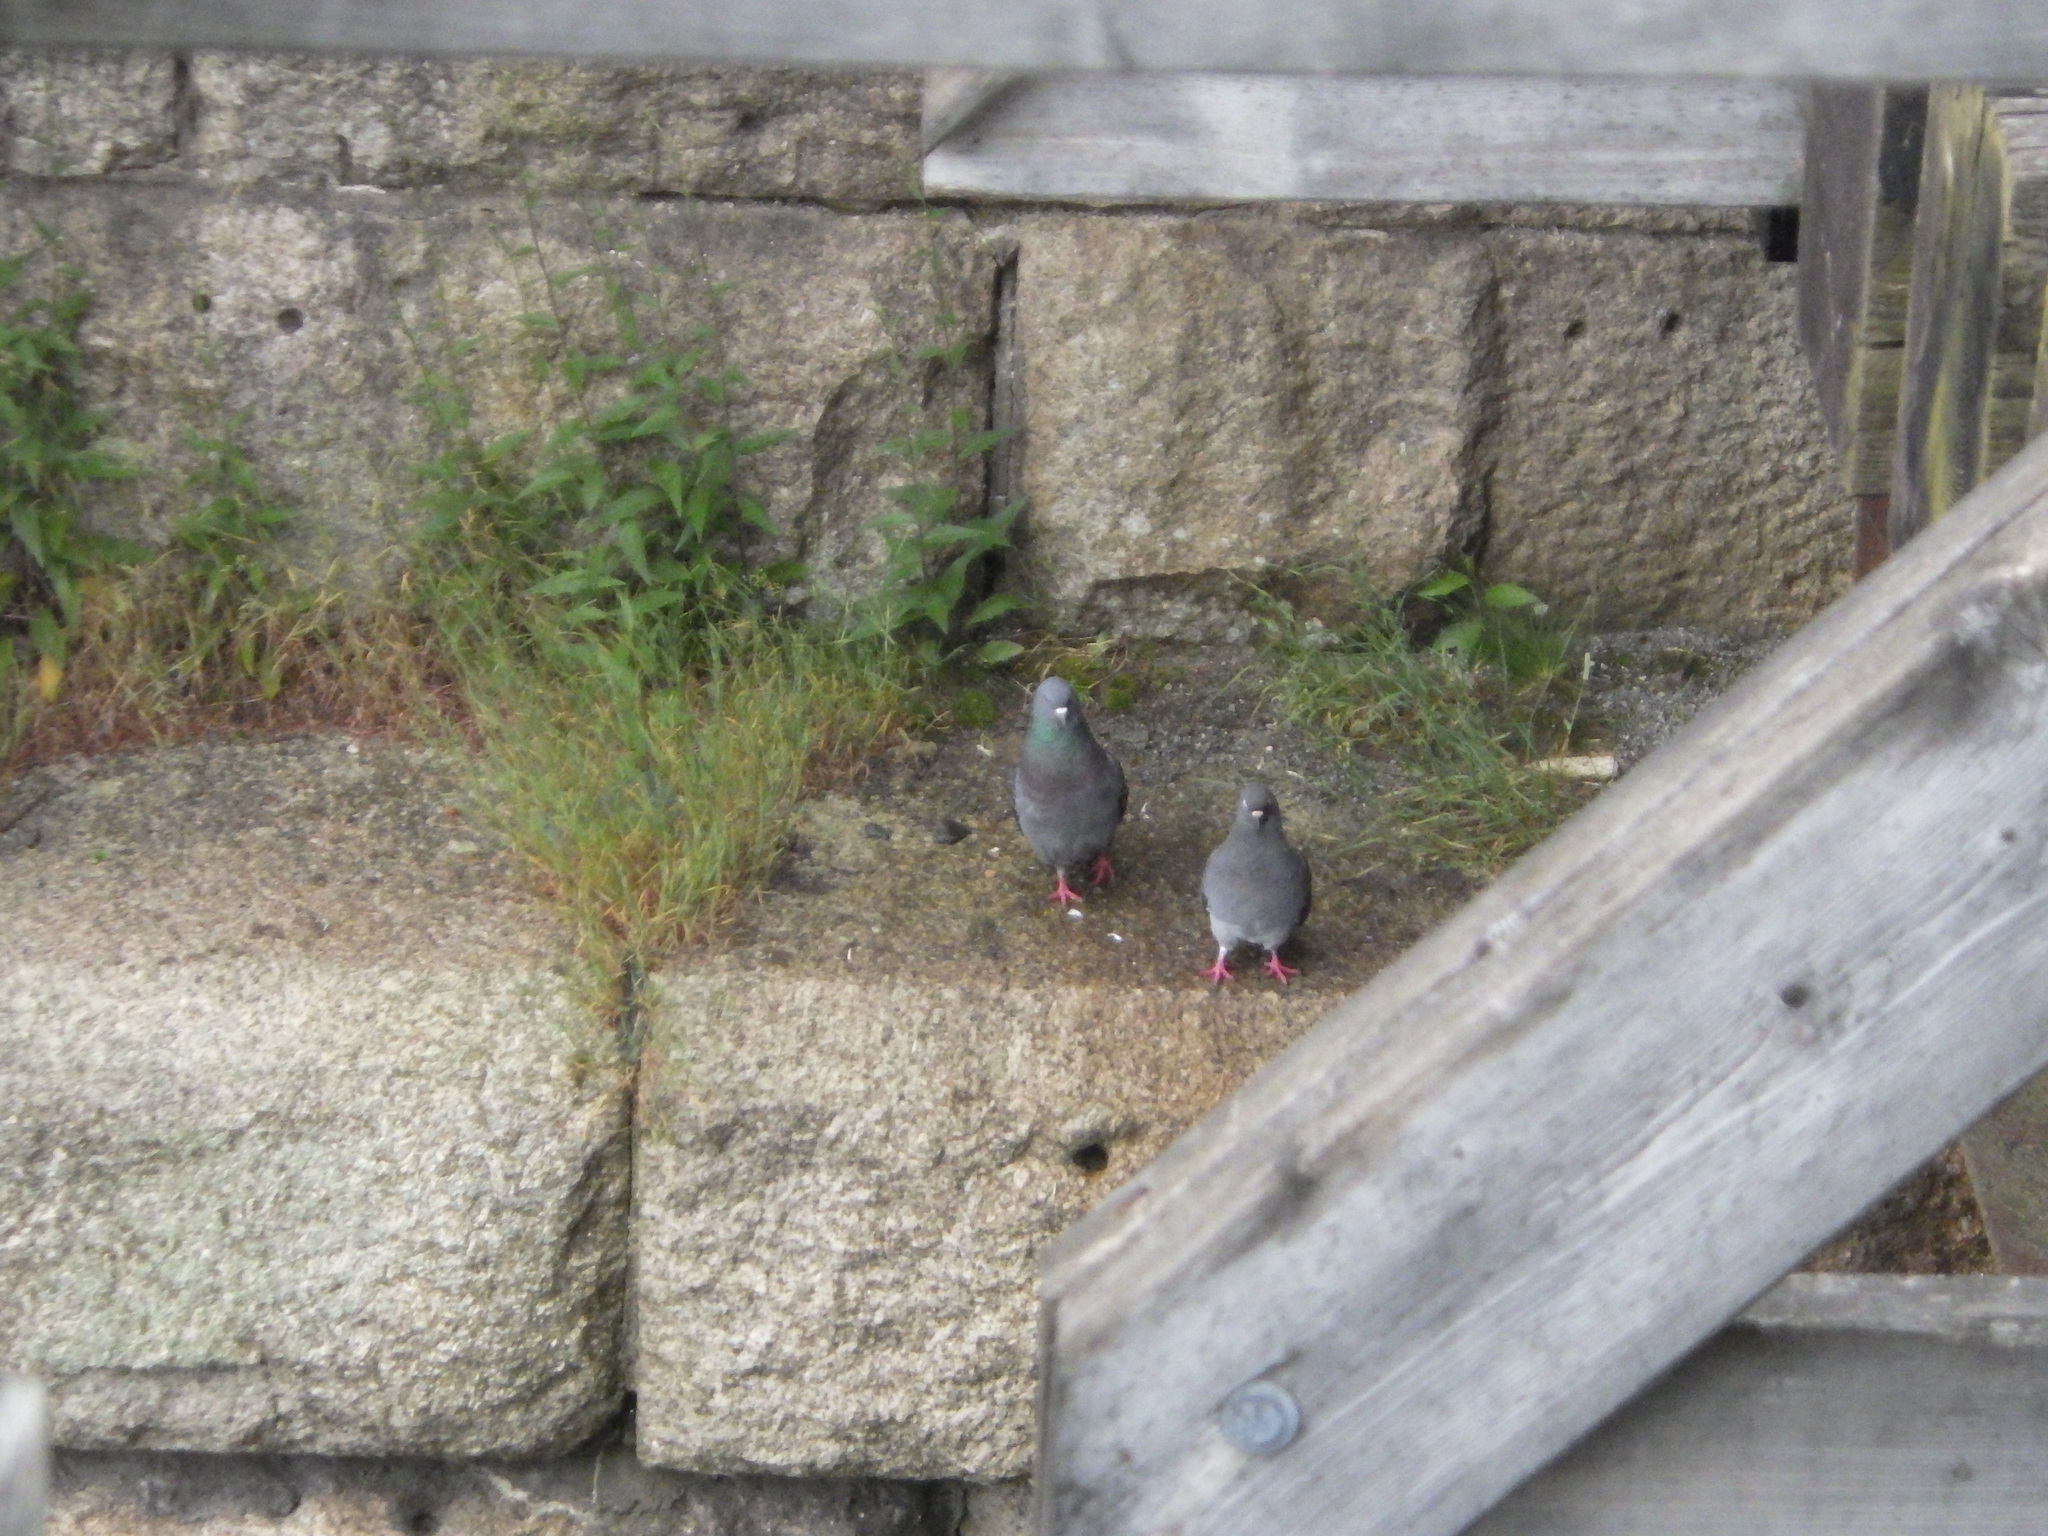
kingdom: Animalia
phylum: Chordata
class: Aves
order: Columbiformes
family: Columbidae
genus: Columba
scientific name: Columba livia
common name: Rock pigeon
